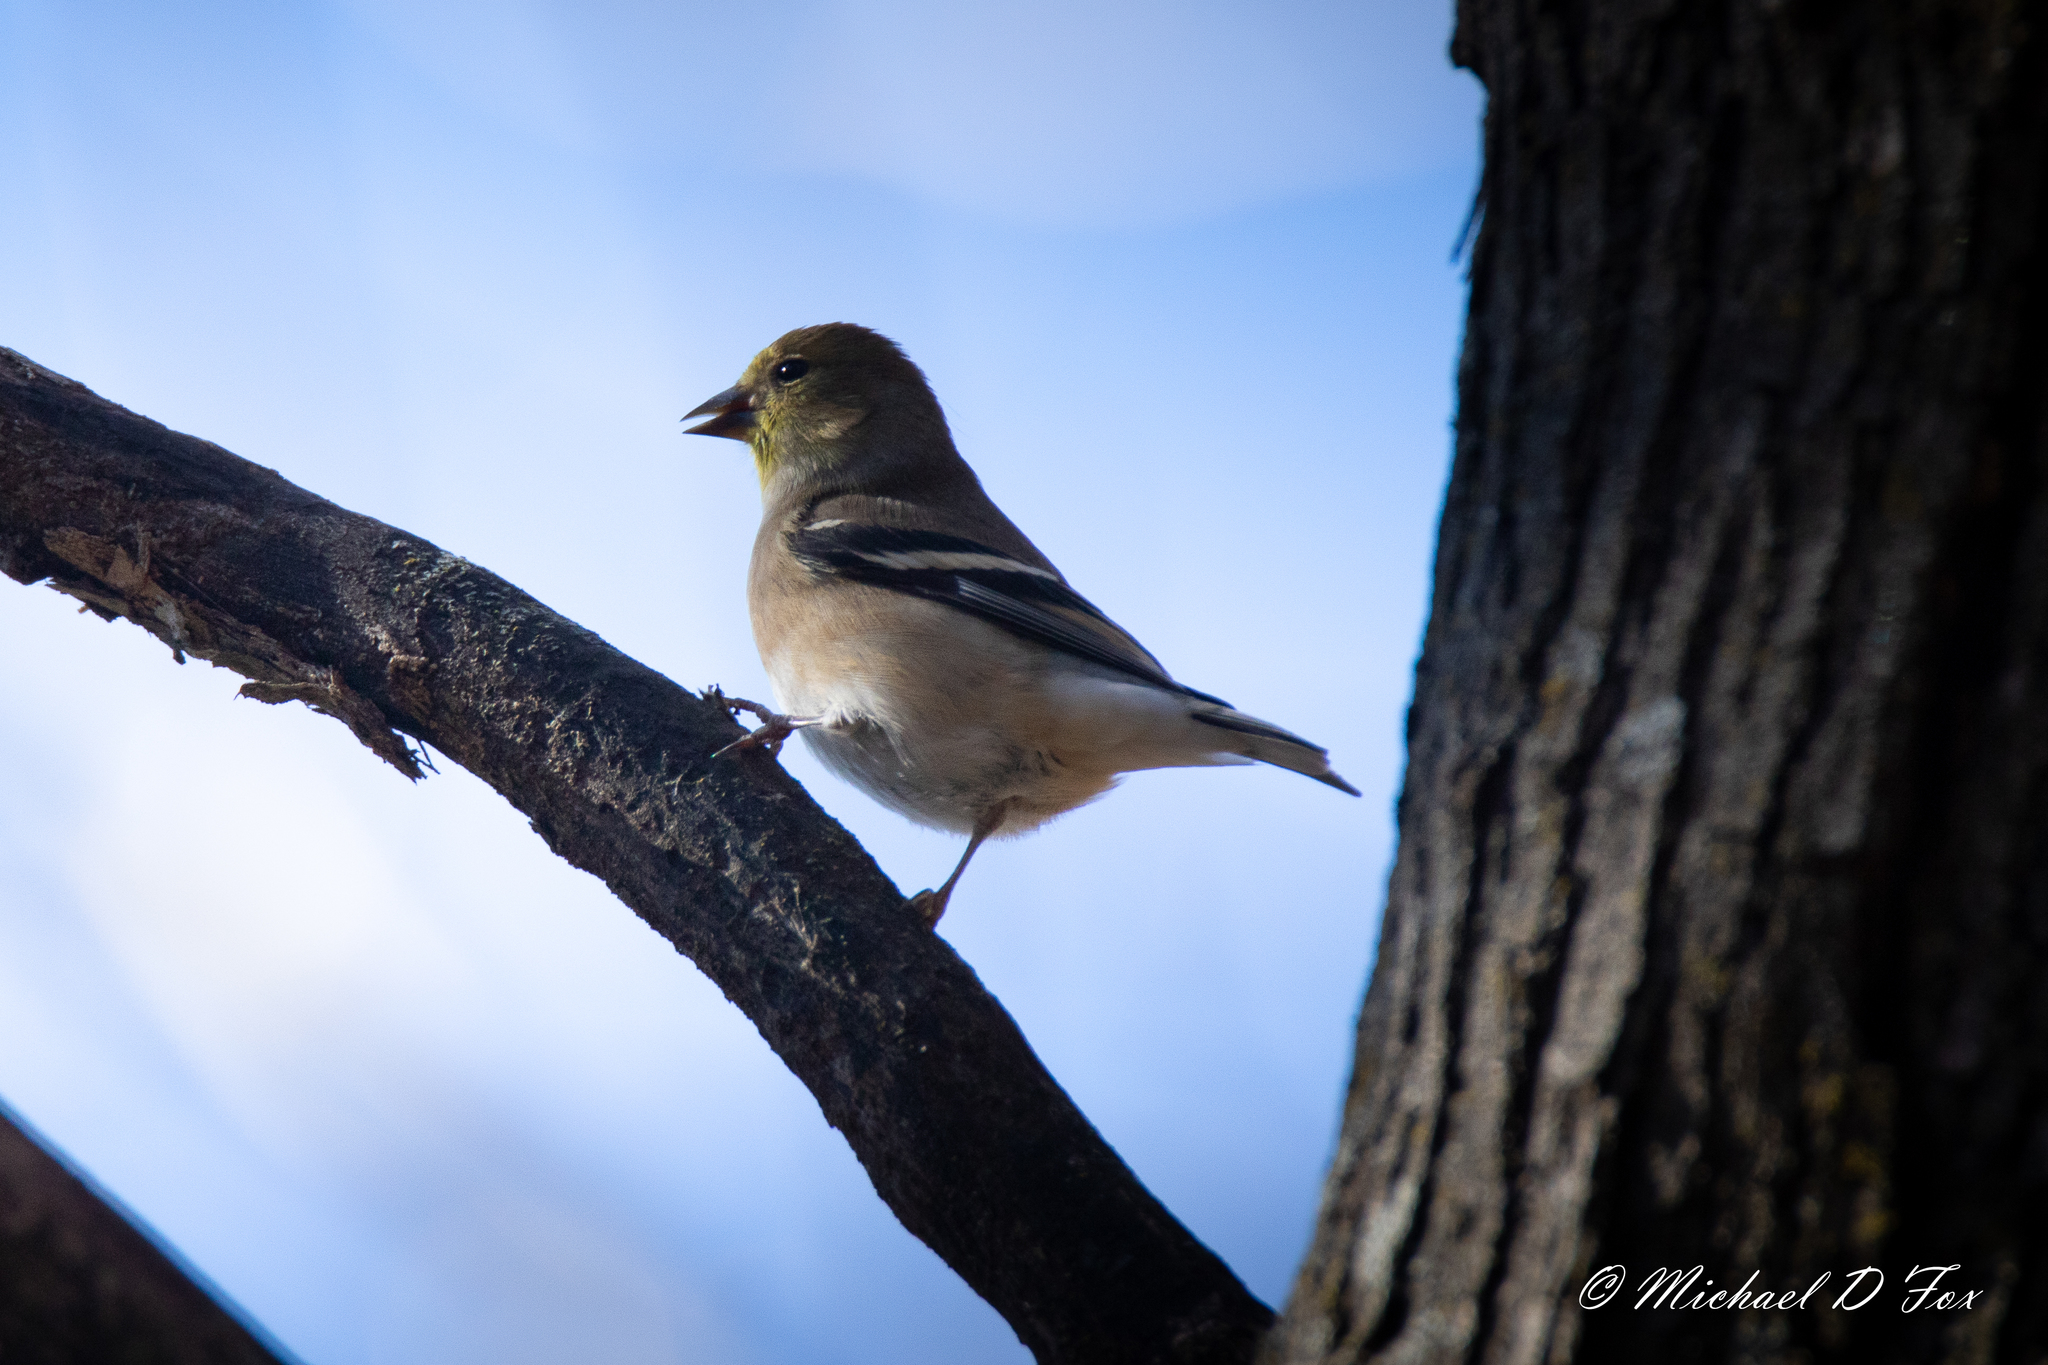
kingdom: Animalia
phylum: Chordata
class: Aves
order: Passeriformes
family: Fringillidae
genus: Spinus
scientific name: Spinus tristis
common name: American goldfinch
